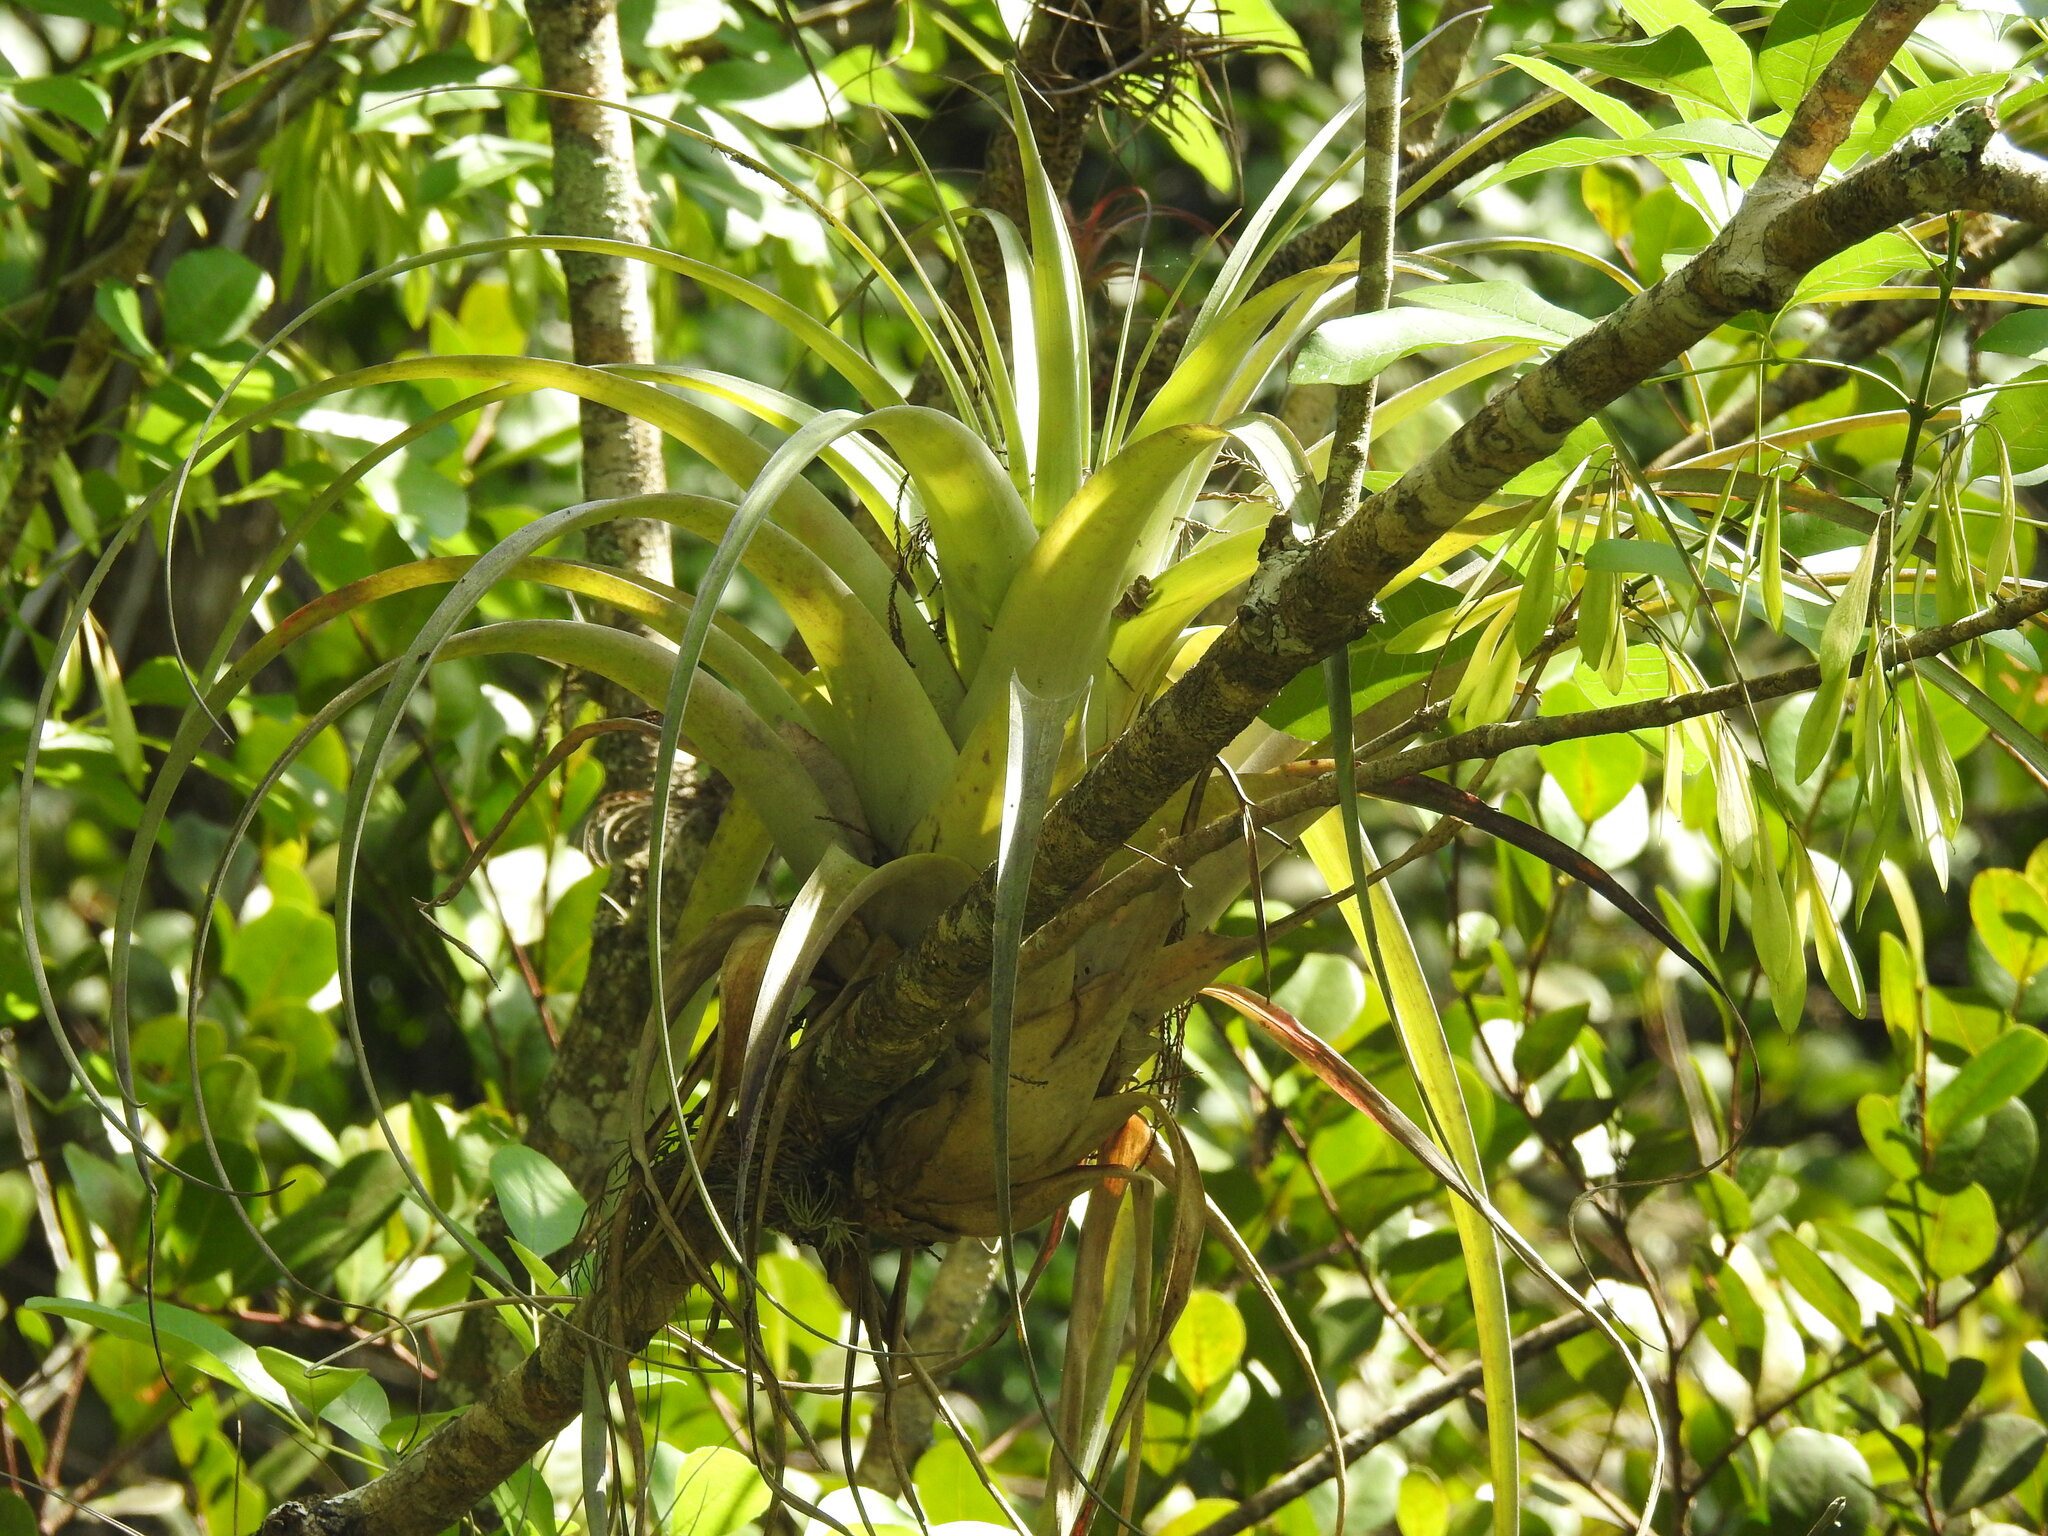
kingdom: Plantae
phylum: Tracheophyta
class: Liliopsida
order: Poales
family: Bromeliaceae
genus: Tillandsia
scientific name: Tillandsia utriculata
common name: Wild pine
